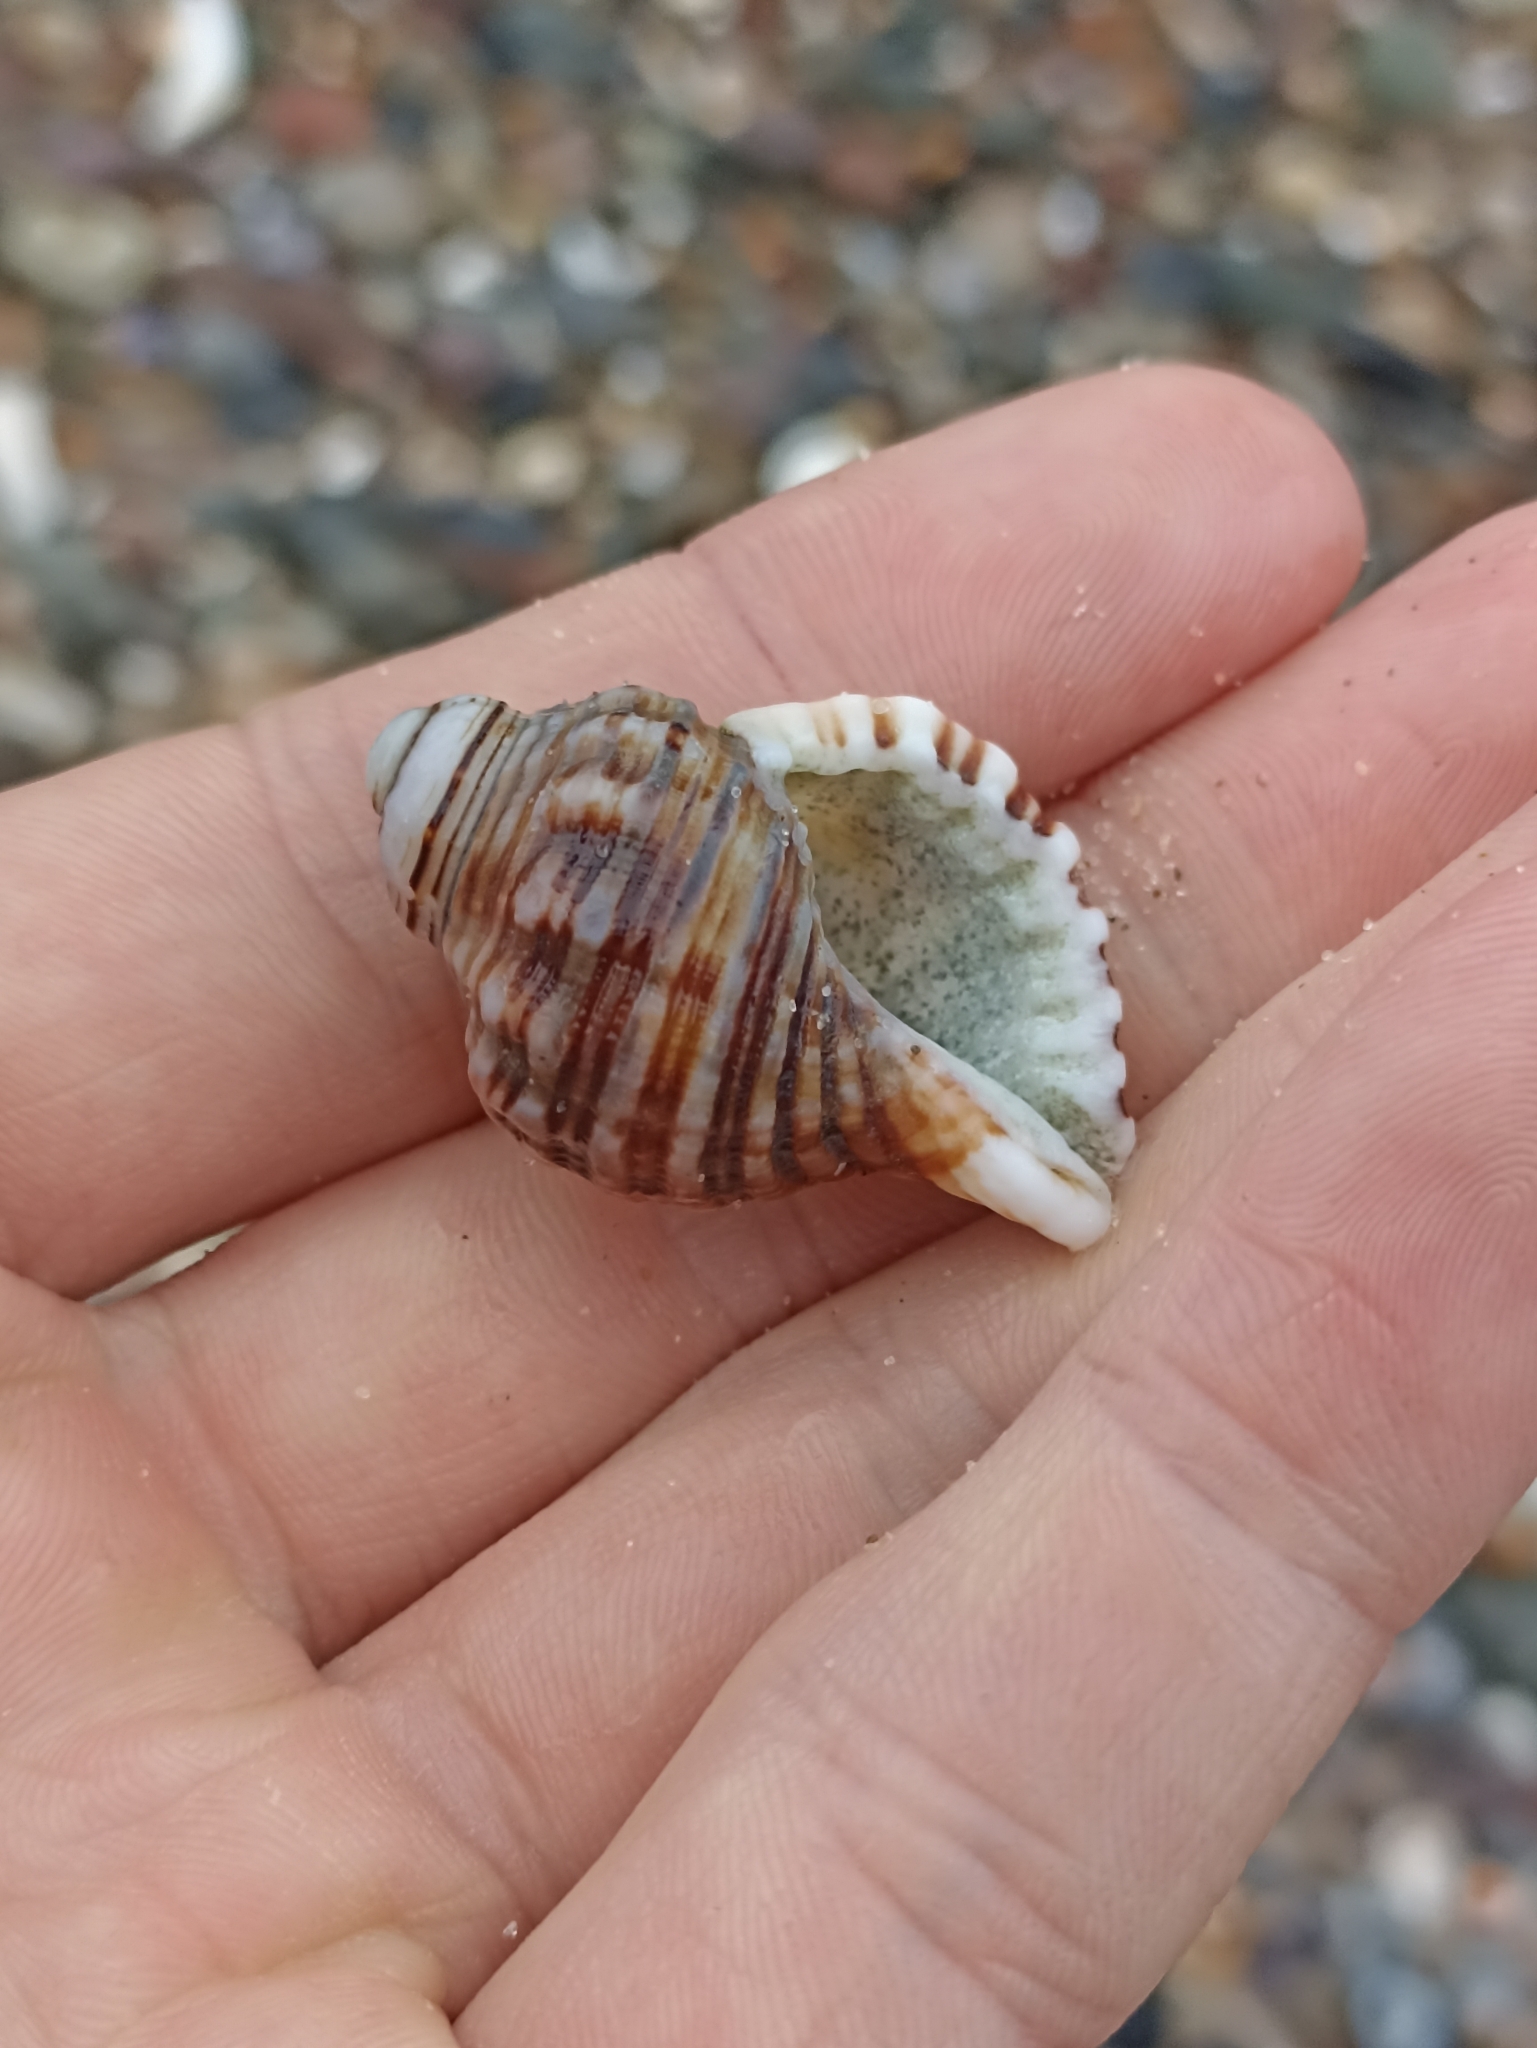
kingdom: Animalia
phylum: Mollusca
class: Gastropoda
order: Littorinimorpha
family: Cymatiidae
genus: Cabestana
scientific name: Cabestana spengleri
